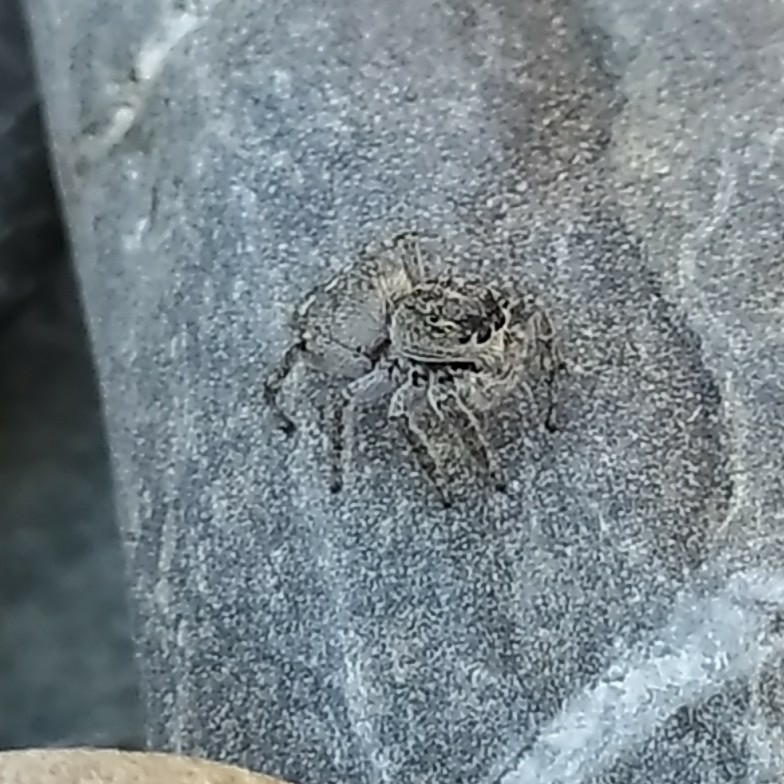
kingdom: Animalia
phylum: Arthropoda
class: Arachnida
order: Araneae
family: Salticidae
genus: Attulus
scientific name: Attulus damini
